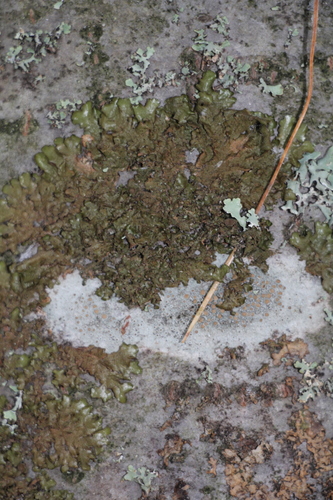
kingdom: Fungi
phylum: Ascomycota
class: Lecanoromycetes
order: Lecanorales
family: Parmeliaceae
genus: Melanohalea
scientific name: Melanohalea
